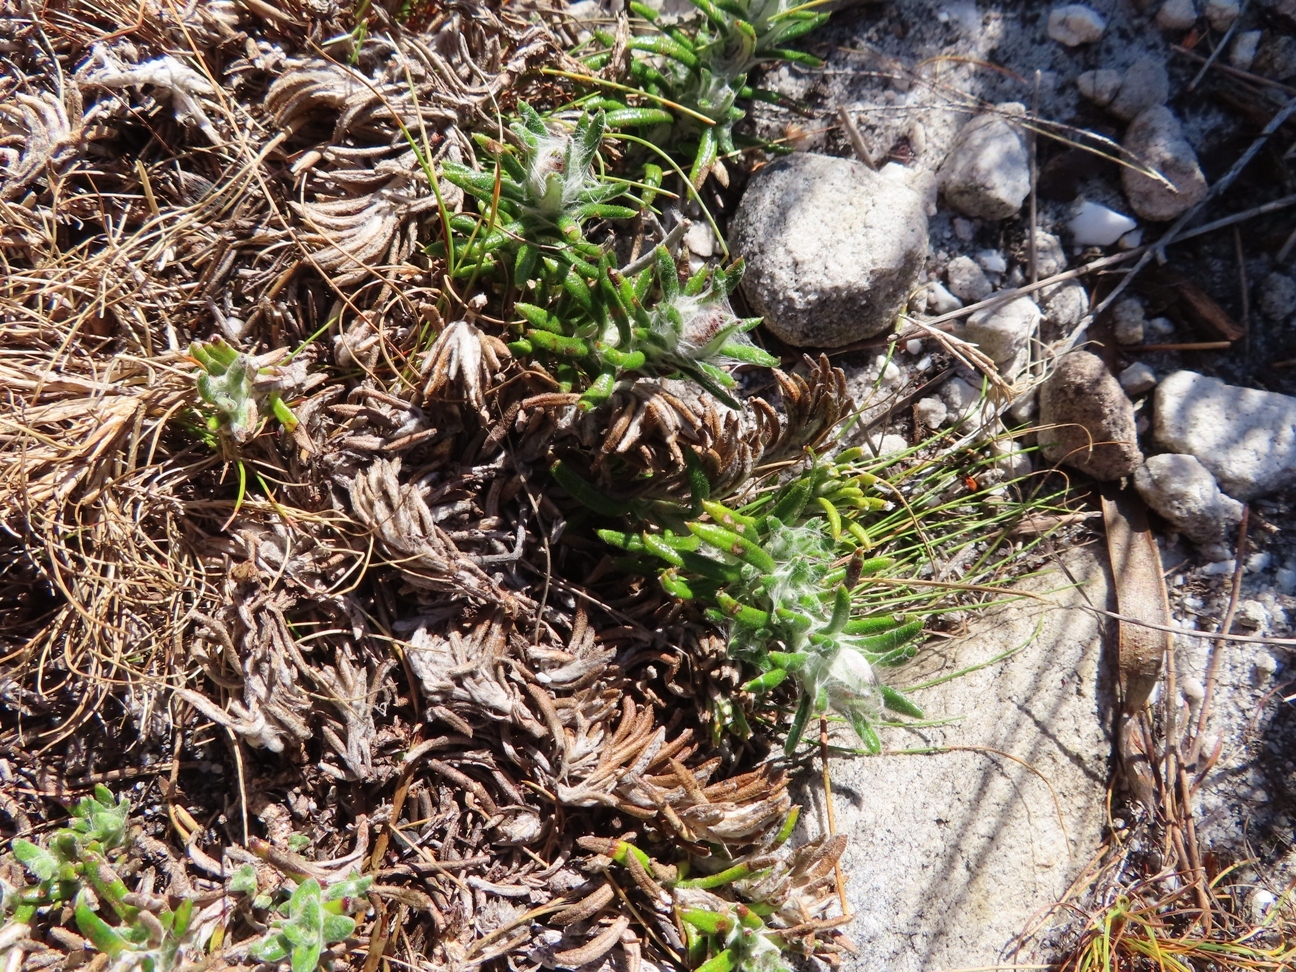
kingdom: Plantae
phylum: Tracheophyta
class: Magnoliopsida
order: Asterales
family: Asteraceae
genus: Anaxeton
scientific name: Anaxeton asperum
